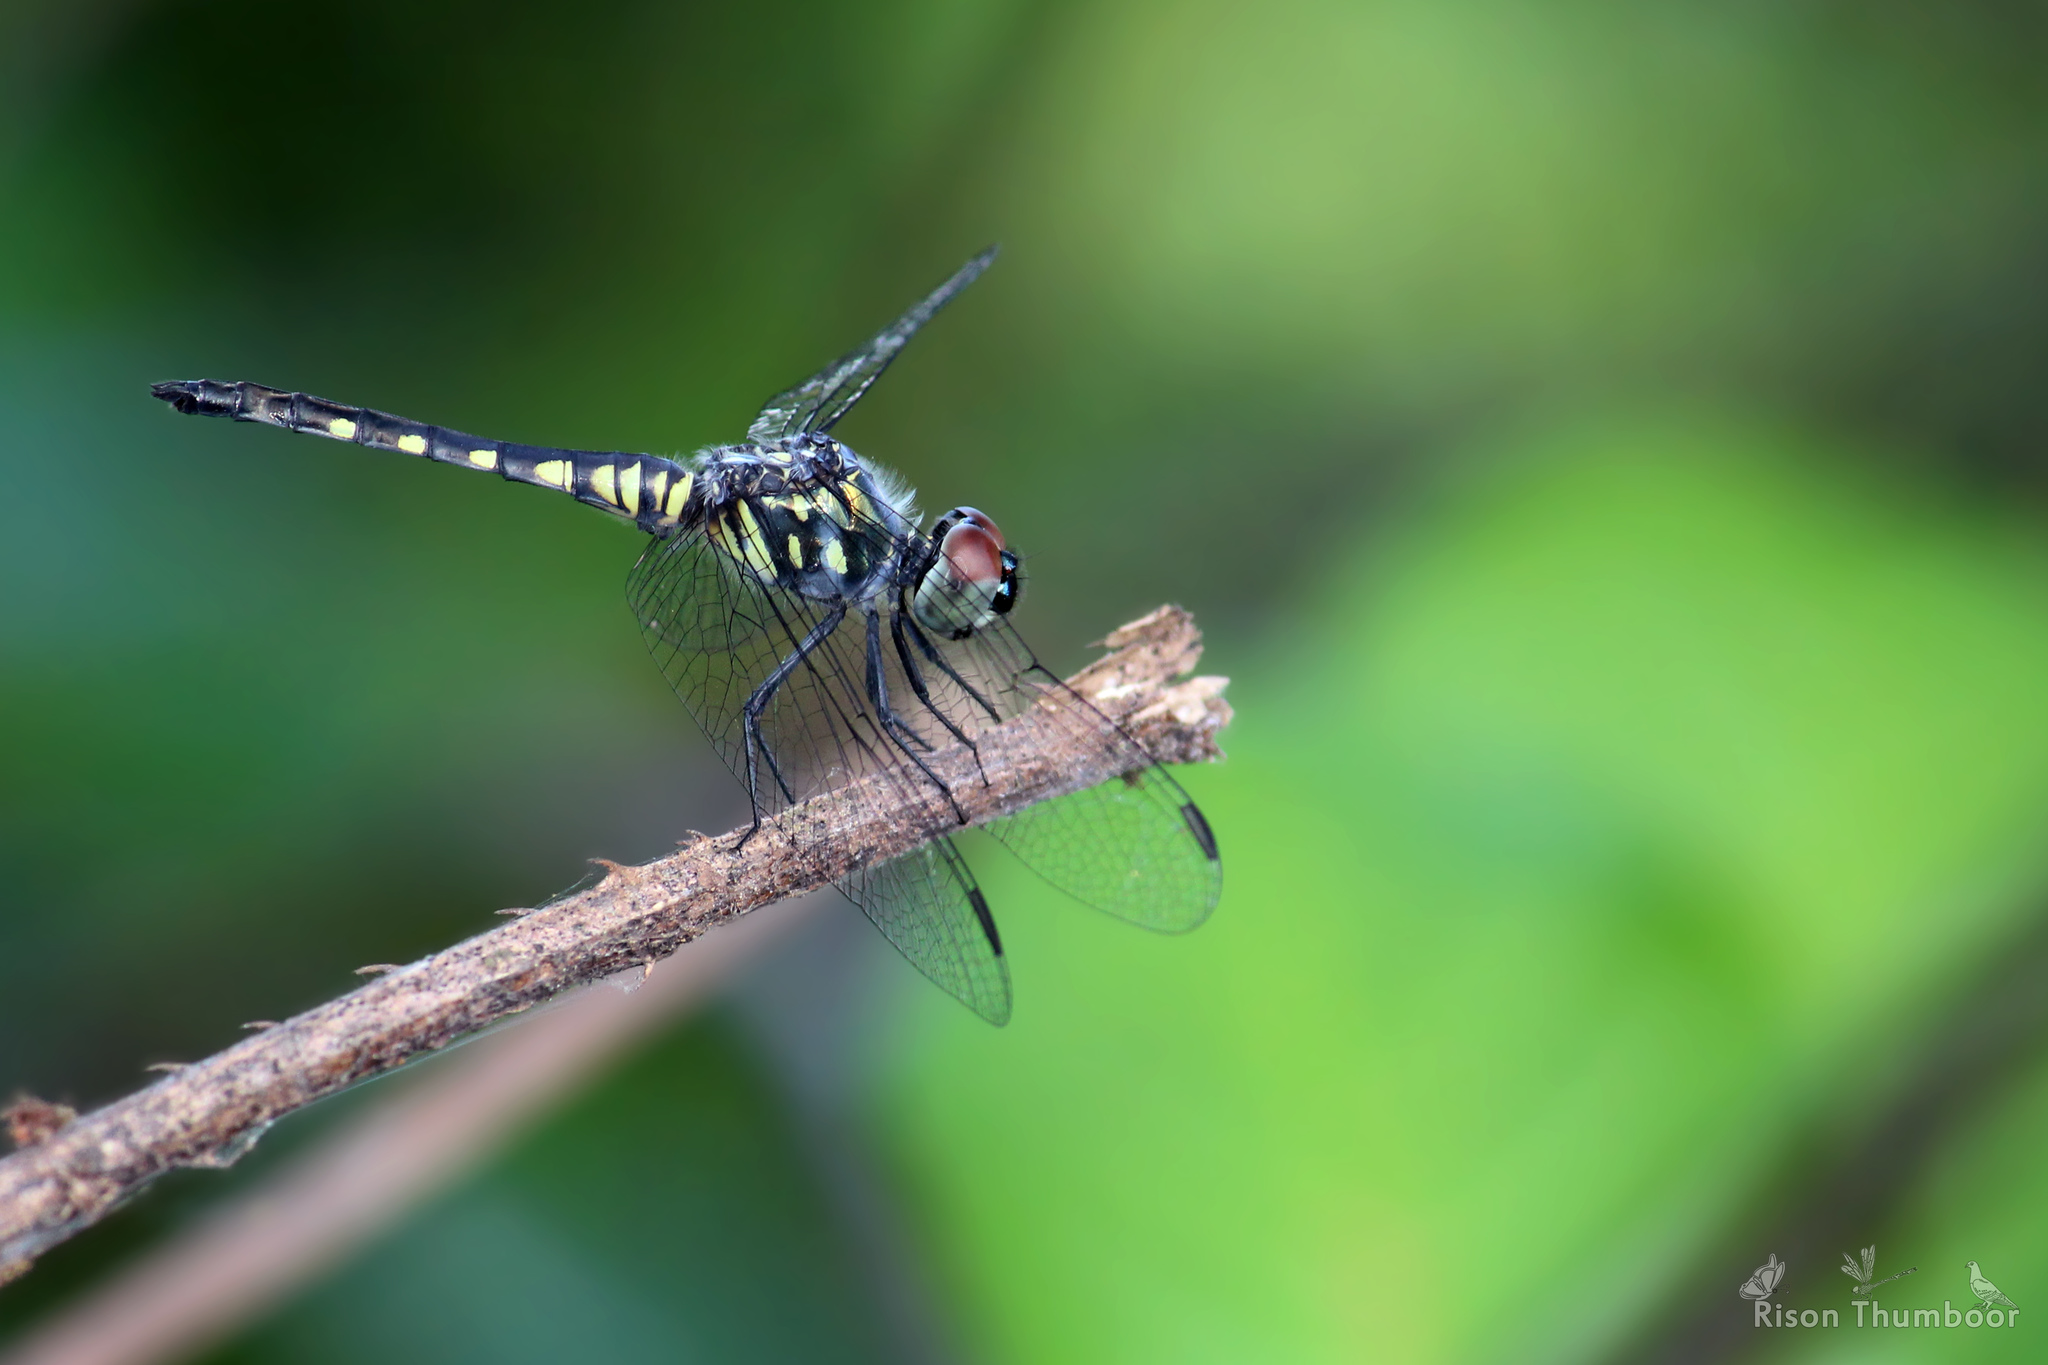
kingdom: Animalia
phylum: Arthropoda
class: Insecta
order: Odonata
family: Libellulidae
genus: Brachydiplax
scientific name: Brachydiplax sobrina
